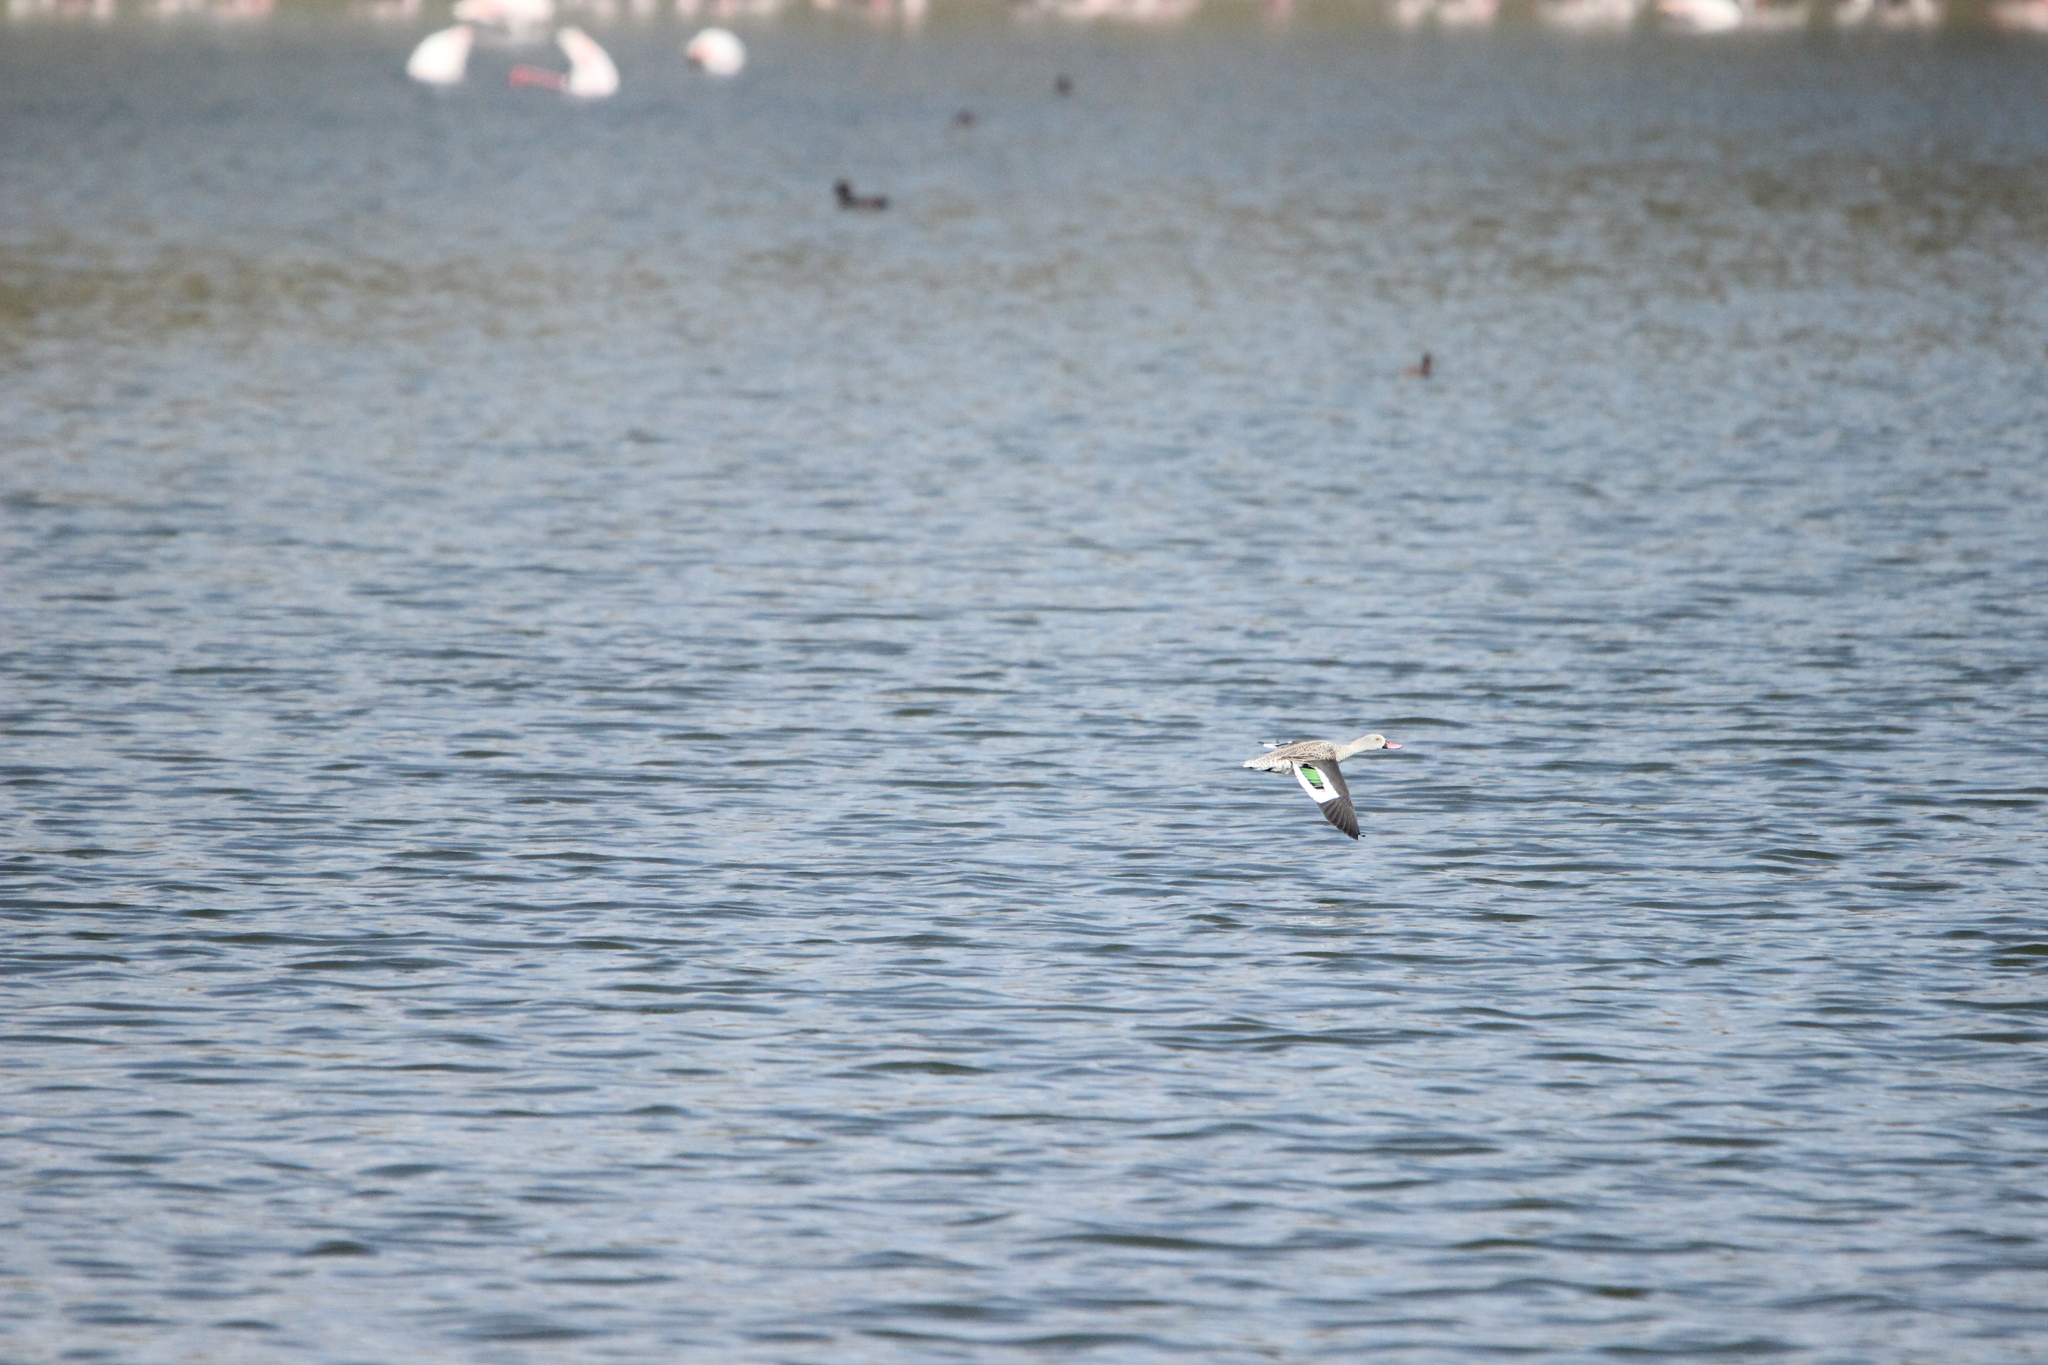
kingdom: Animalia
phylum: Chordata
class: Aves
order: Anseriformes
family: Anatidae
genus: Anas
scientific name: Anas capensis
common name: Cape teal
